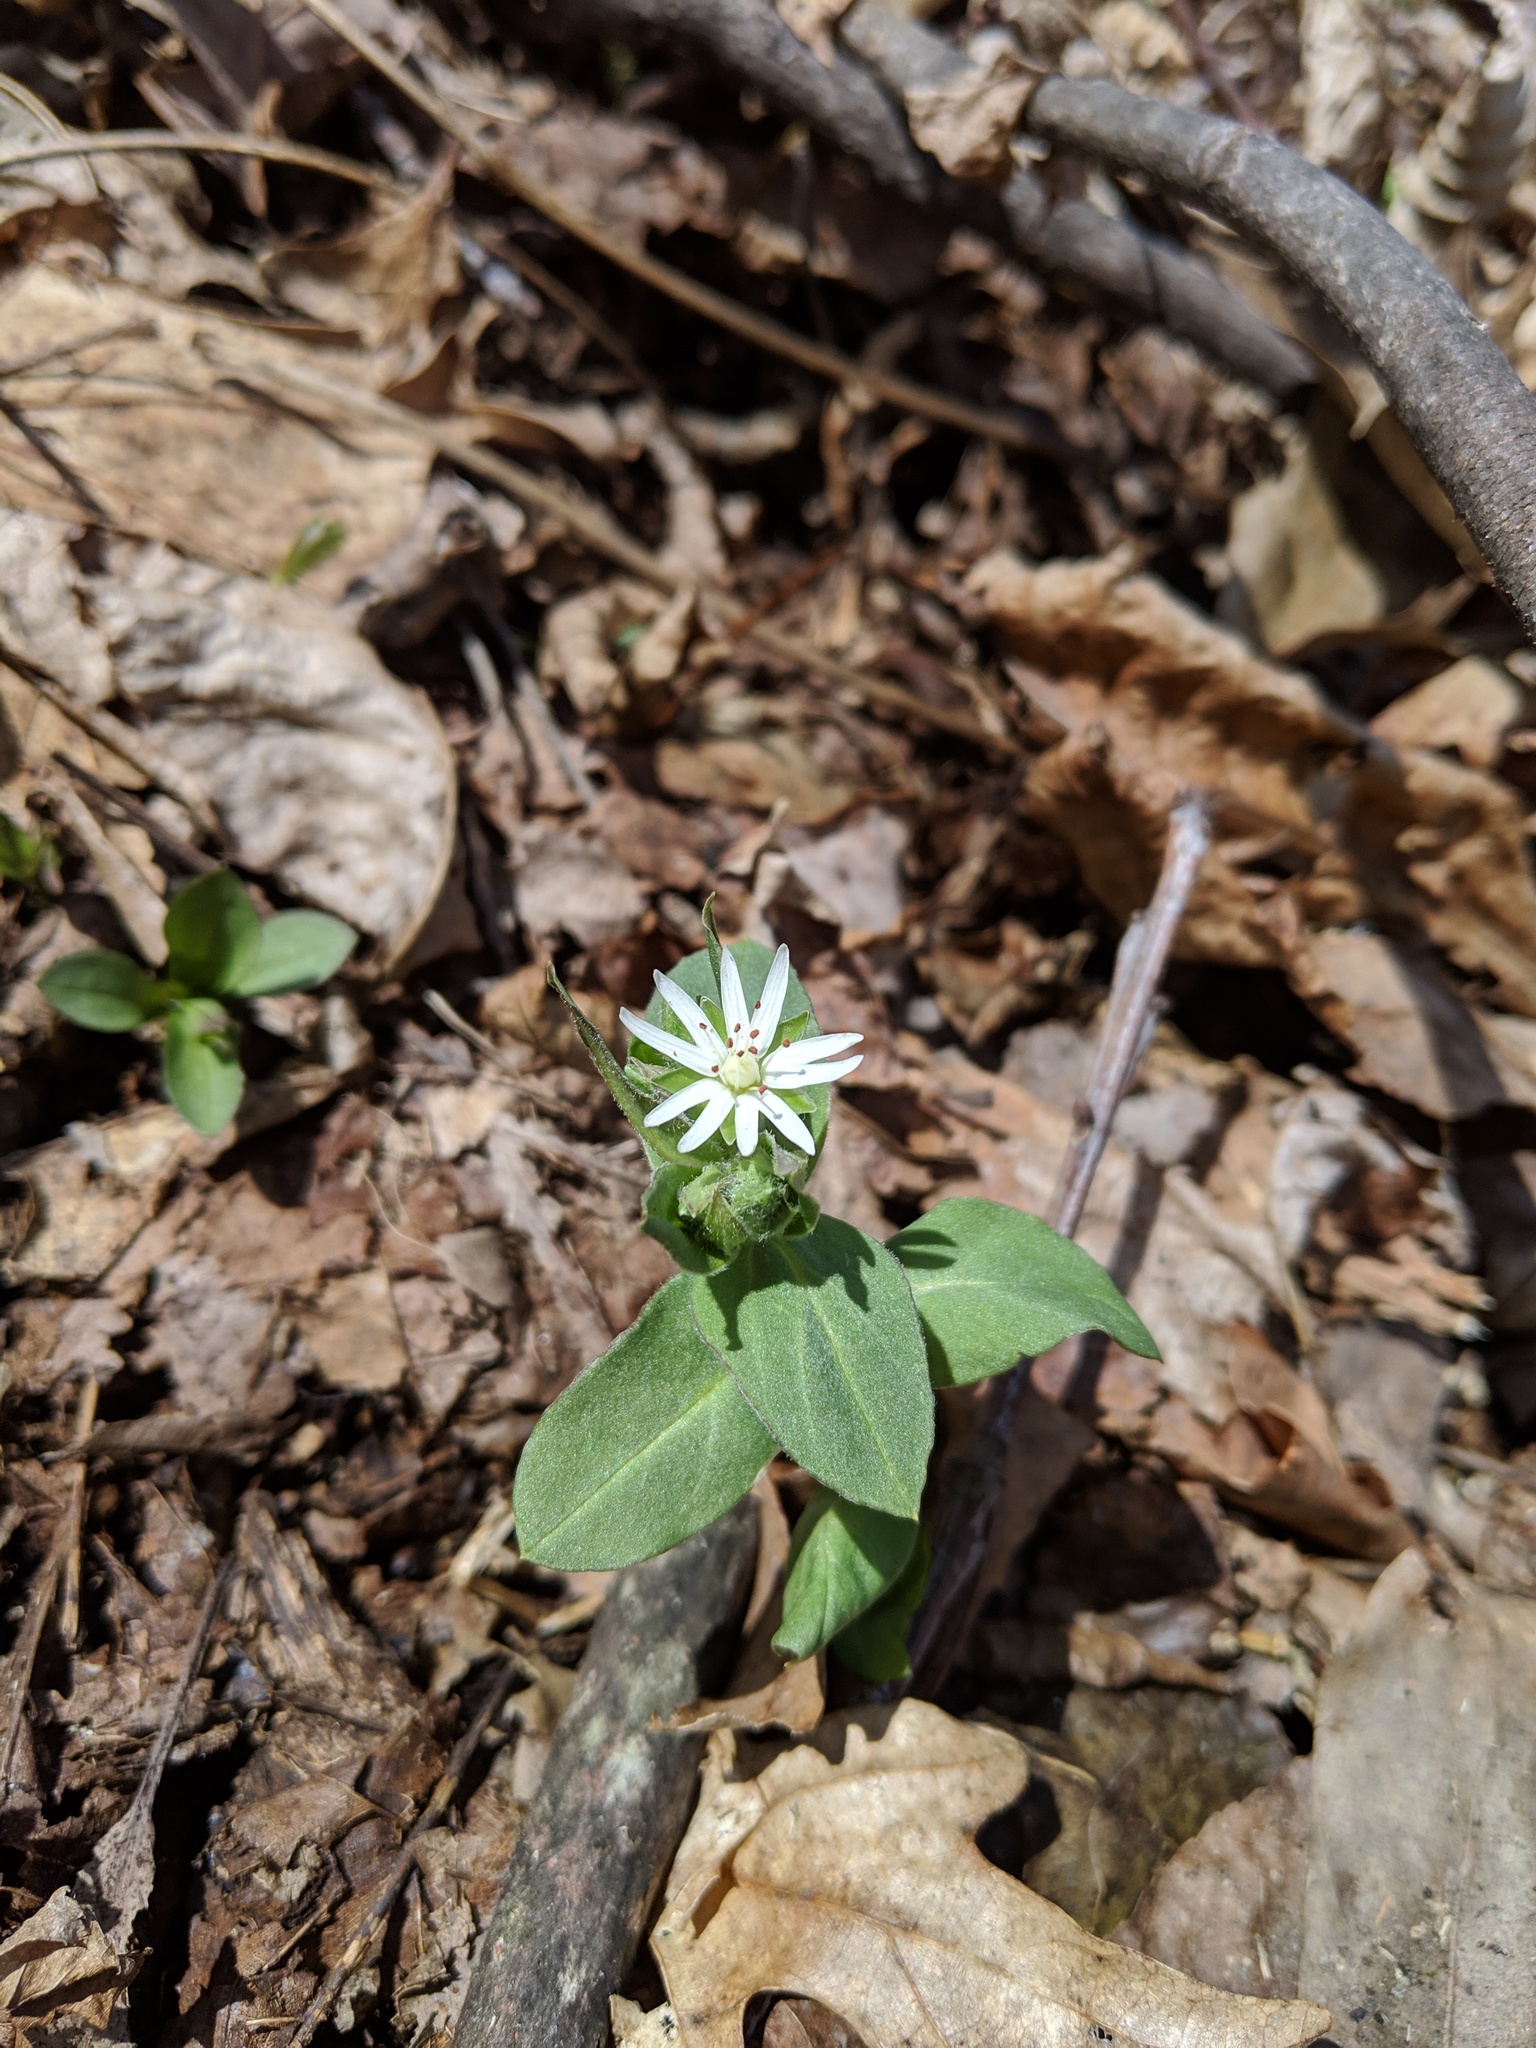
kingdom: Plantae
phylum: Tracheophyta
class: Magnoliopsida
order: Caryophyllales
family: Caryophyllaceae
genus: Stellaria
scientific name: Stellaria pubera
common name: Star chickweed
